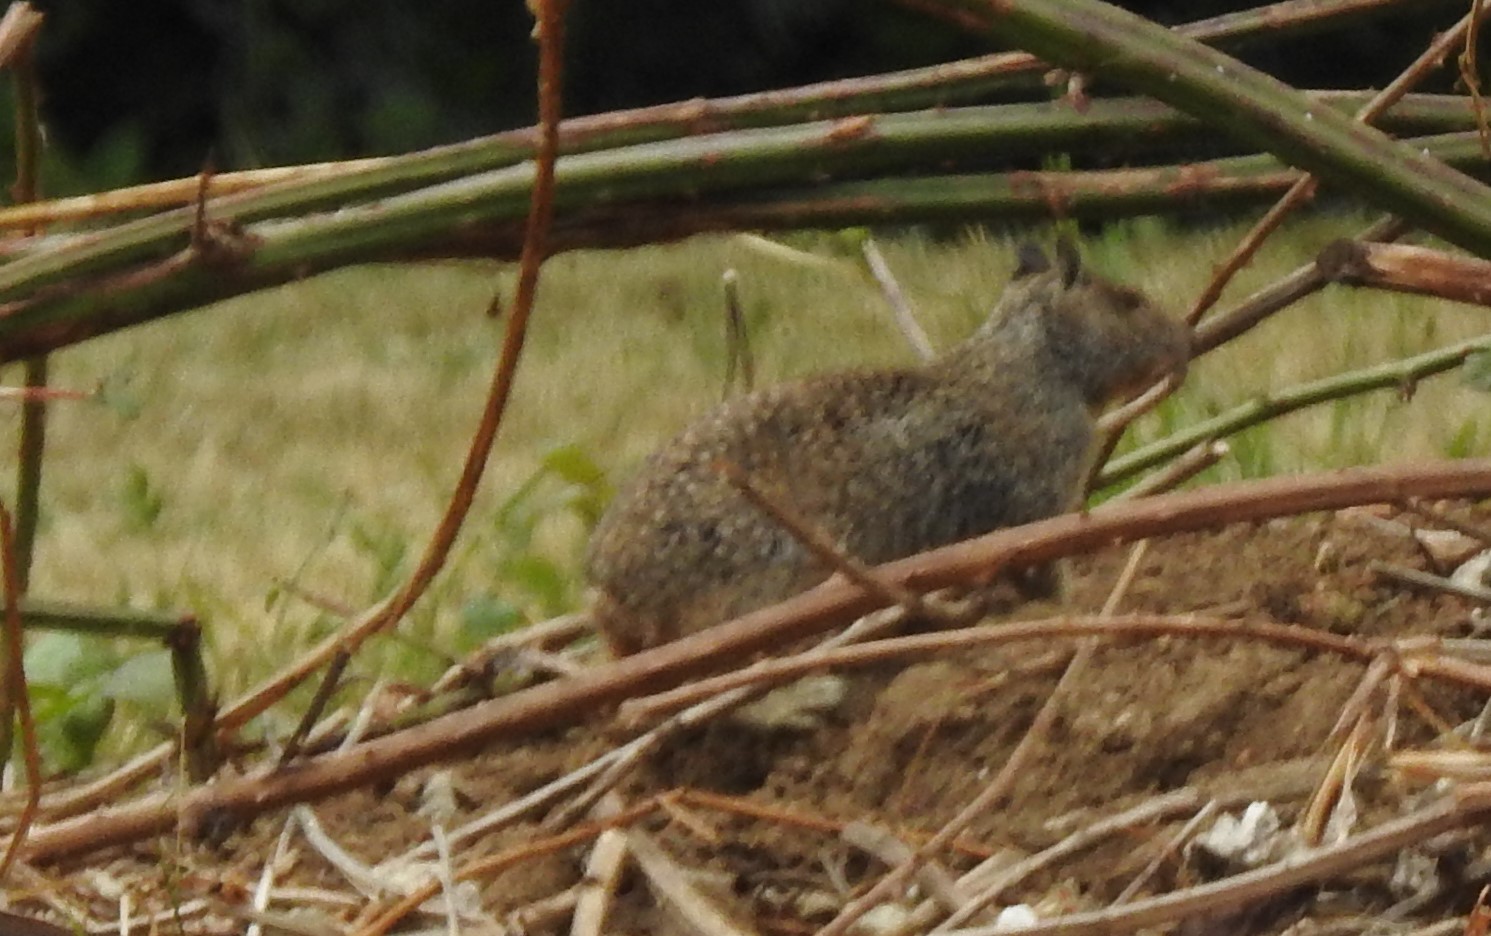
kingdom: Animalia
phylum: Chordata
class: Mammalia
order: Rodentia
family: Sciuridae
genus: Otospermophilus
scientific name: Otospermophilus beecheyi
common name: California ground squirrel
